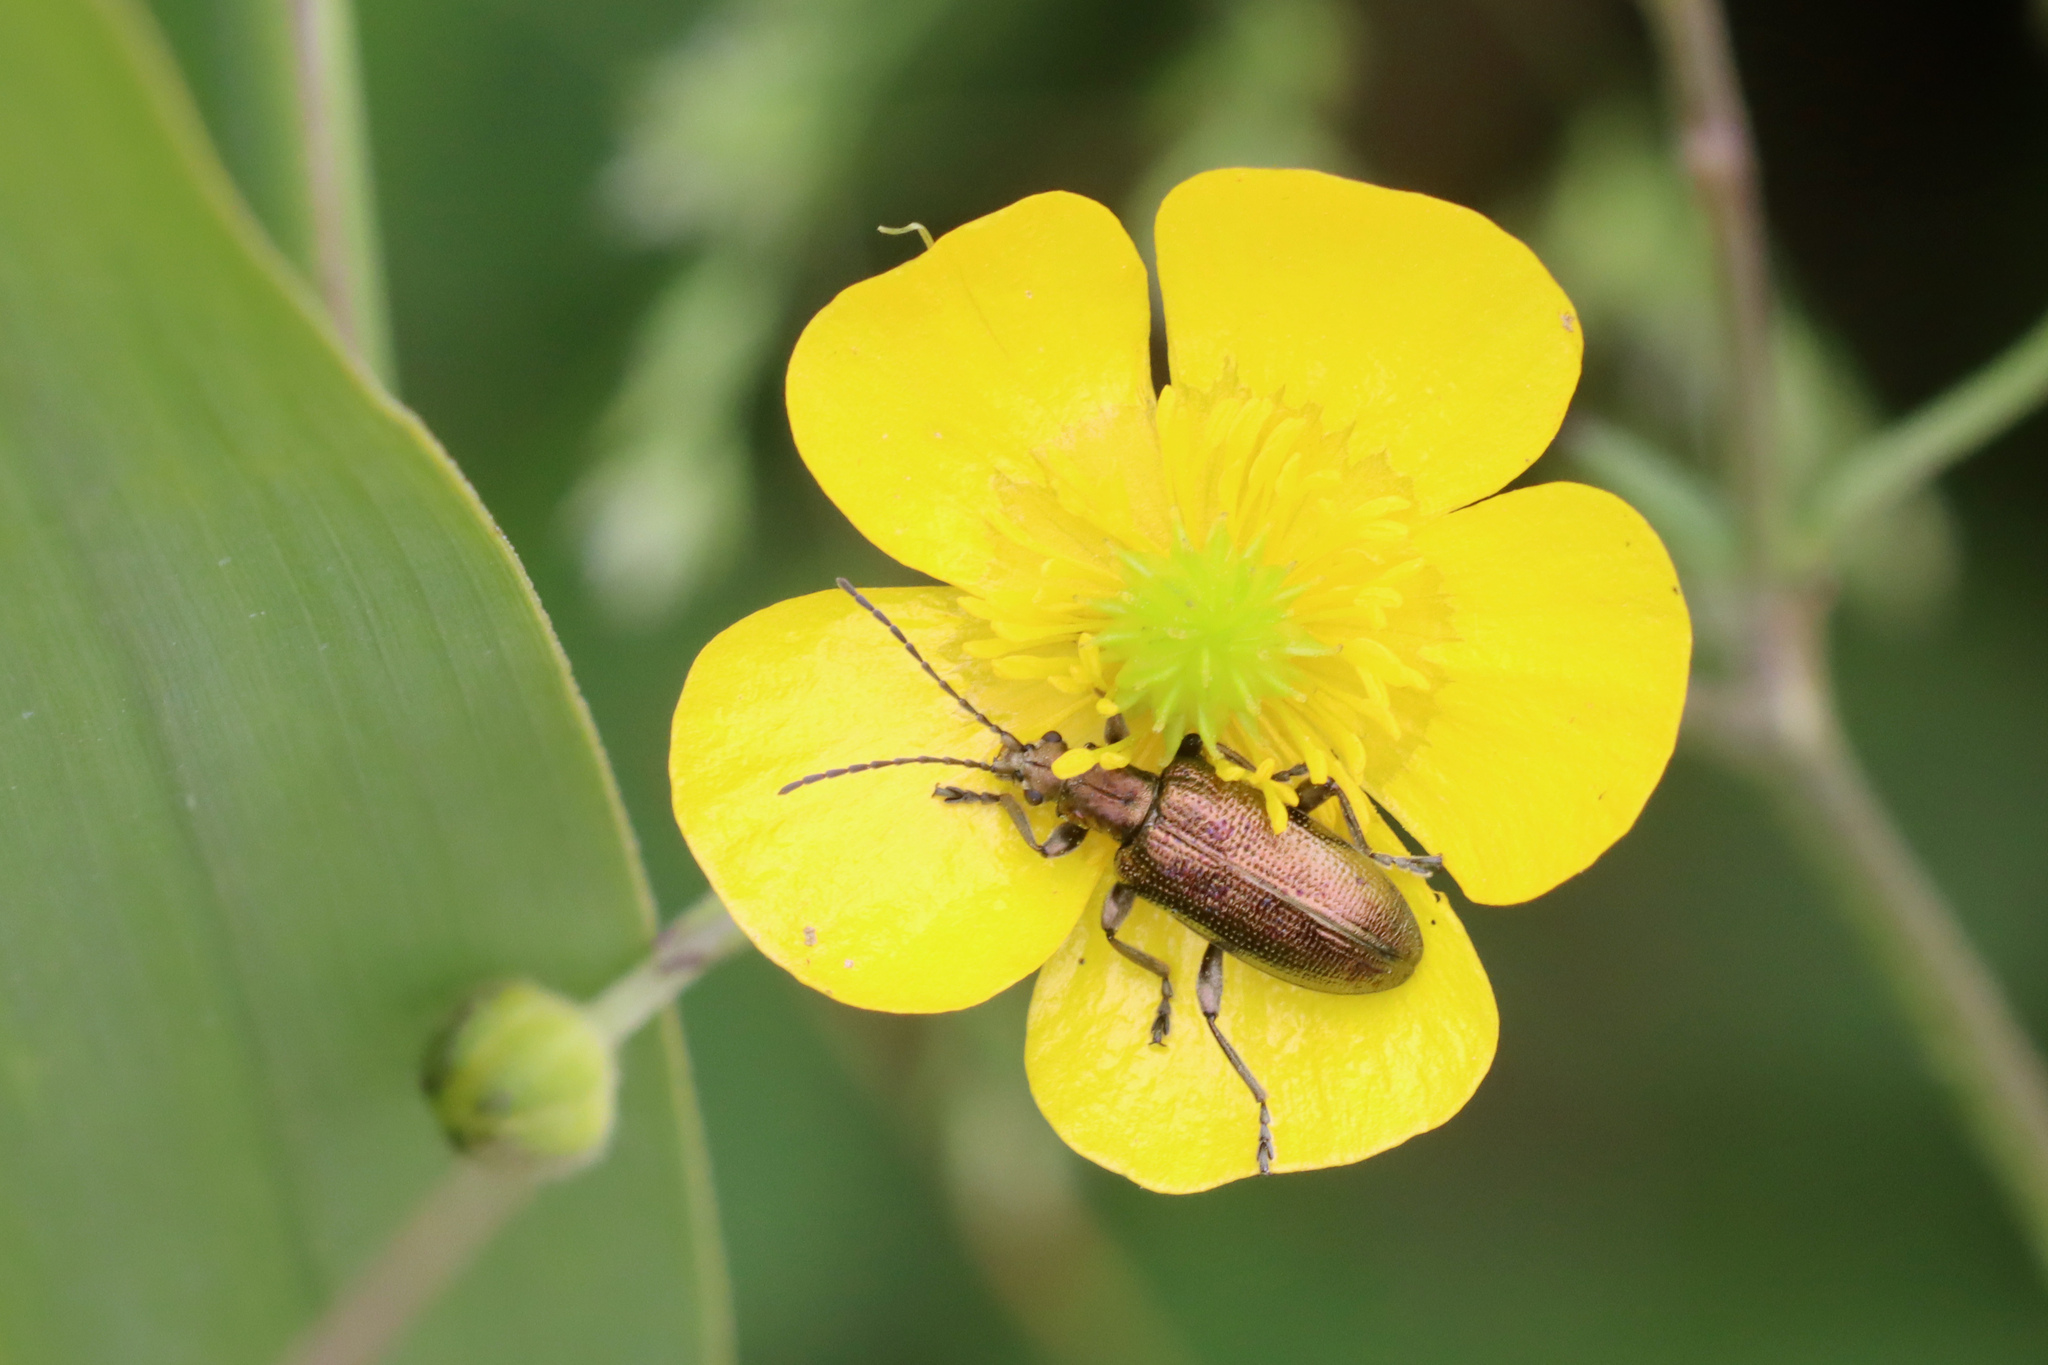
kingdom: Animalia
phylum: Arthropoda
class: Insecta
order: Coleoptera
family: Chrysomelidae
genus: Plateumaris
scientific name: Plateumaris sericea
